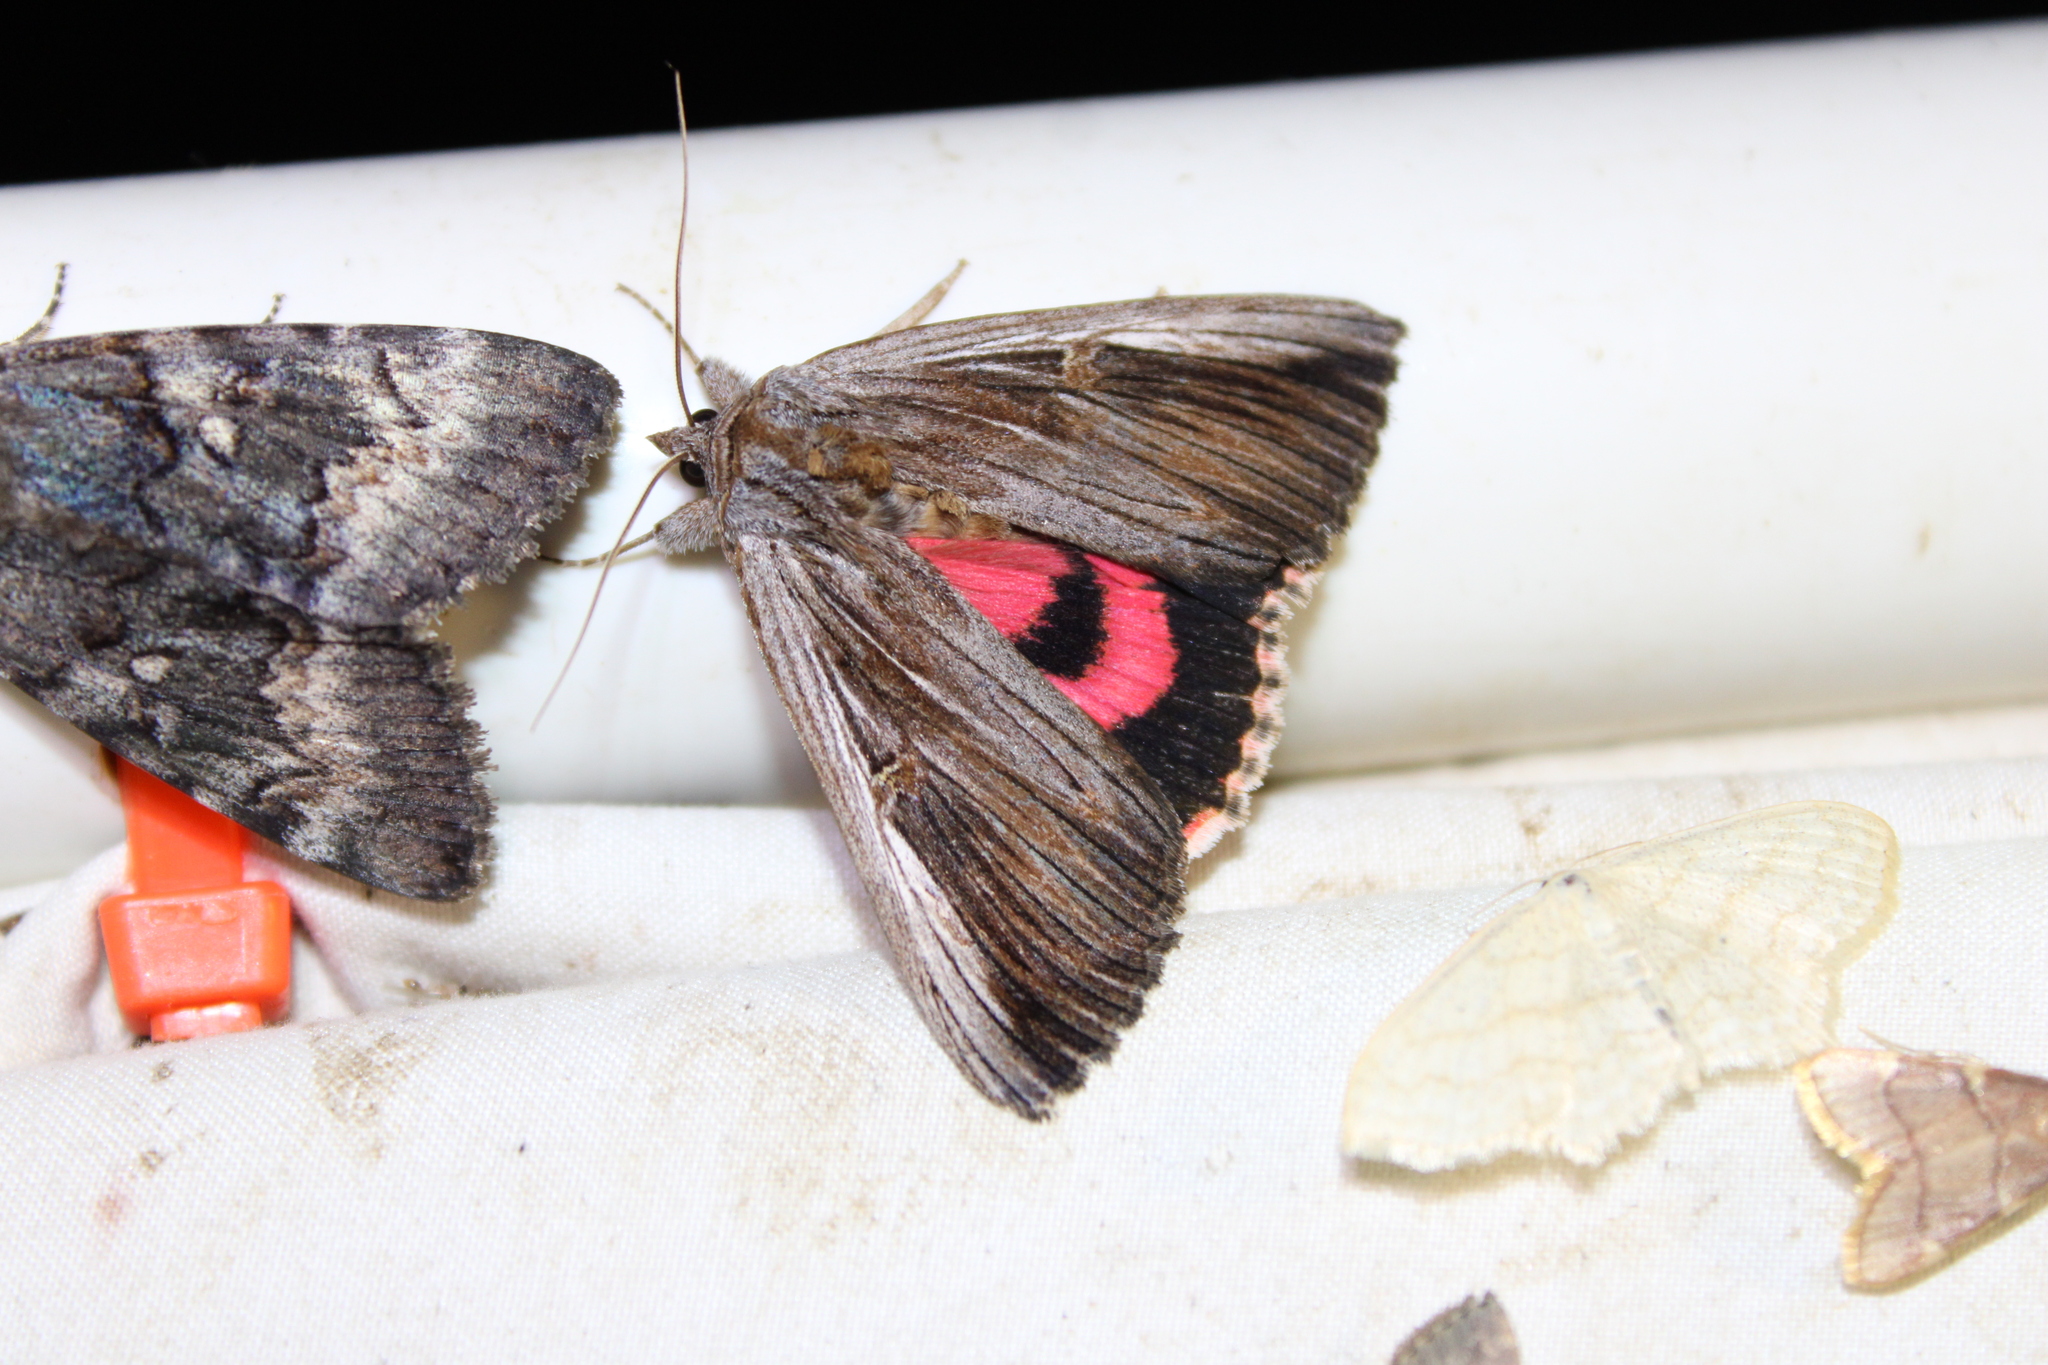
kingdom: Animalia
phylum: Arthropoda
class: Insecta
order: Lepidoptera
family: Erebidae
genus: Catocala
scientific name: Catocala herodias
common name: Pine barrens underwing
